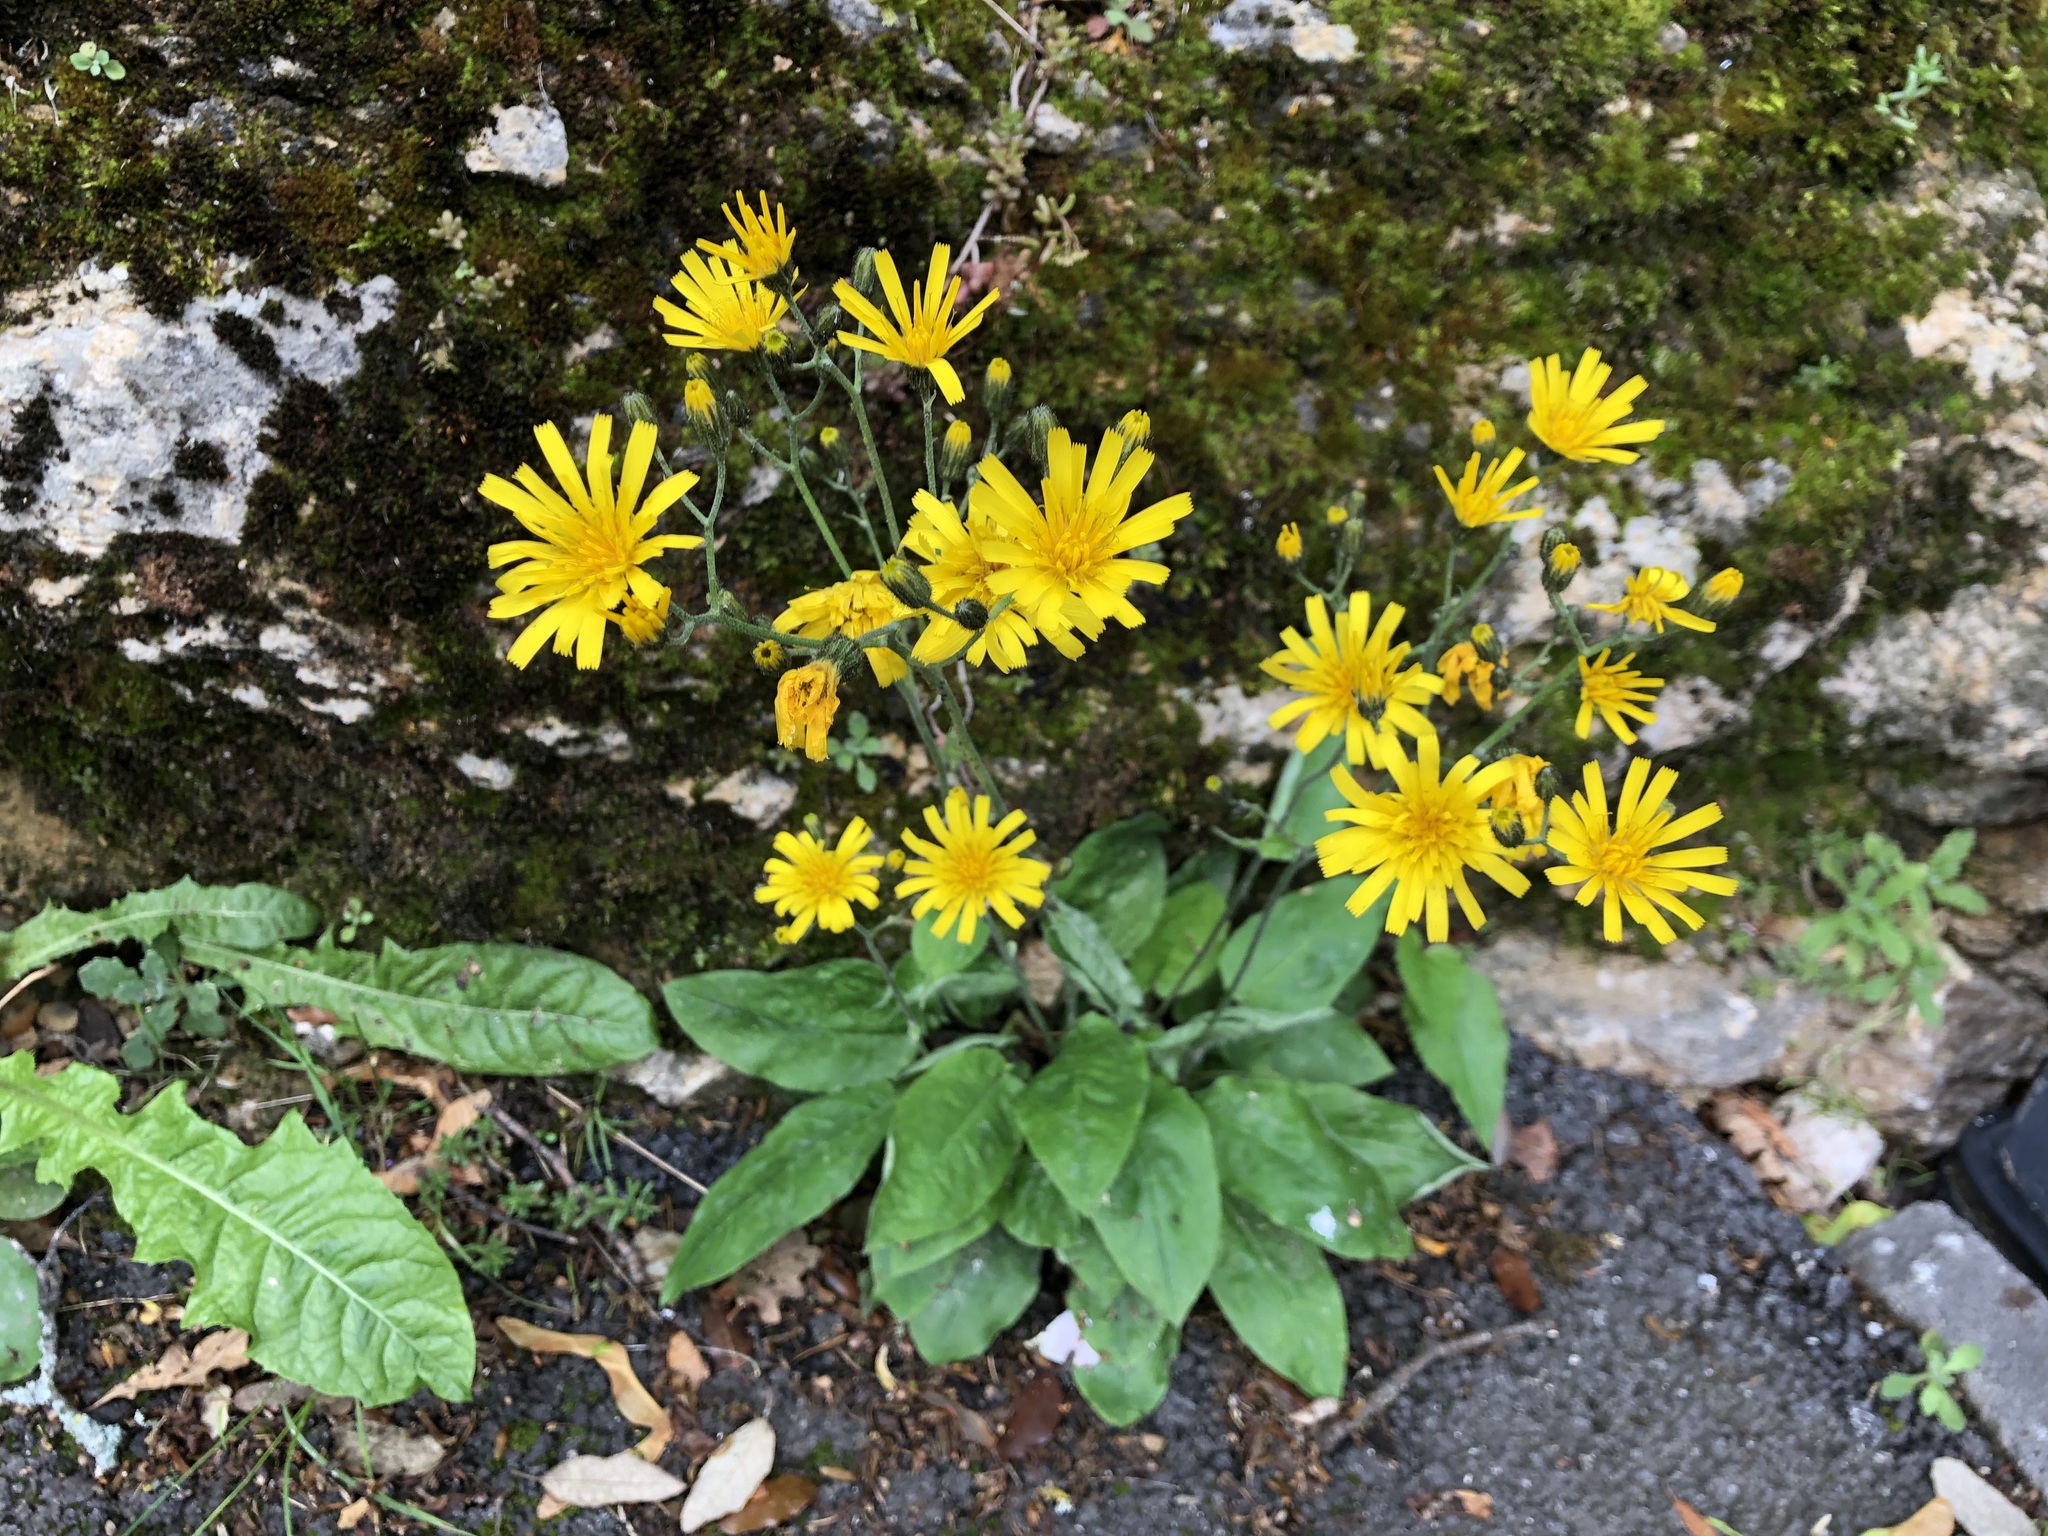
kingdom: Plantae
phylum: Tracheophyta
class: Magnoliopsida
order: Asterales
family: Asteraceae
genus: Hieracium
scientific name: Hieracium murorum
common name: Wall hawkweed
